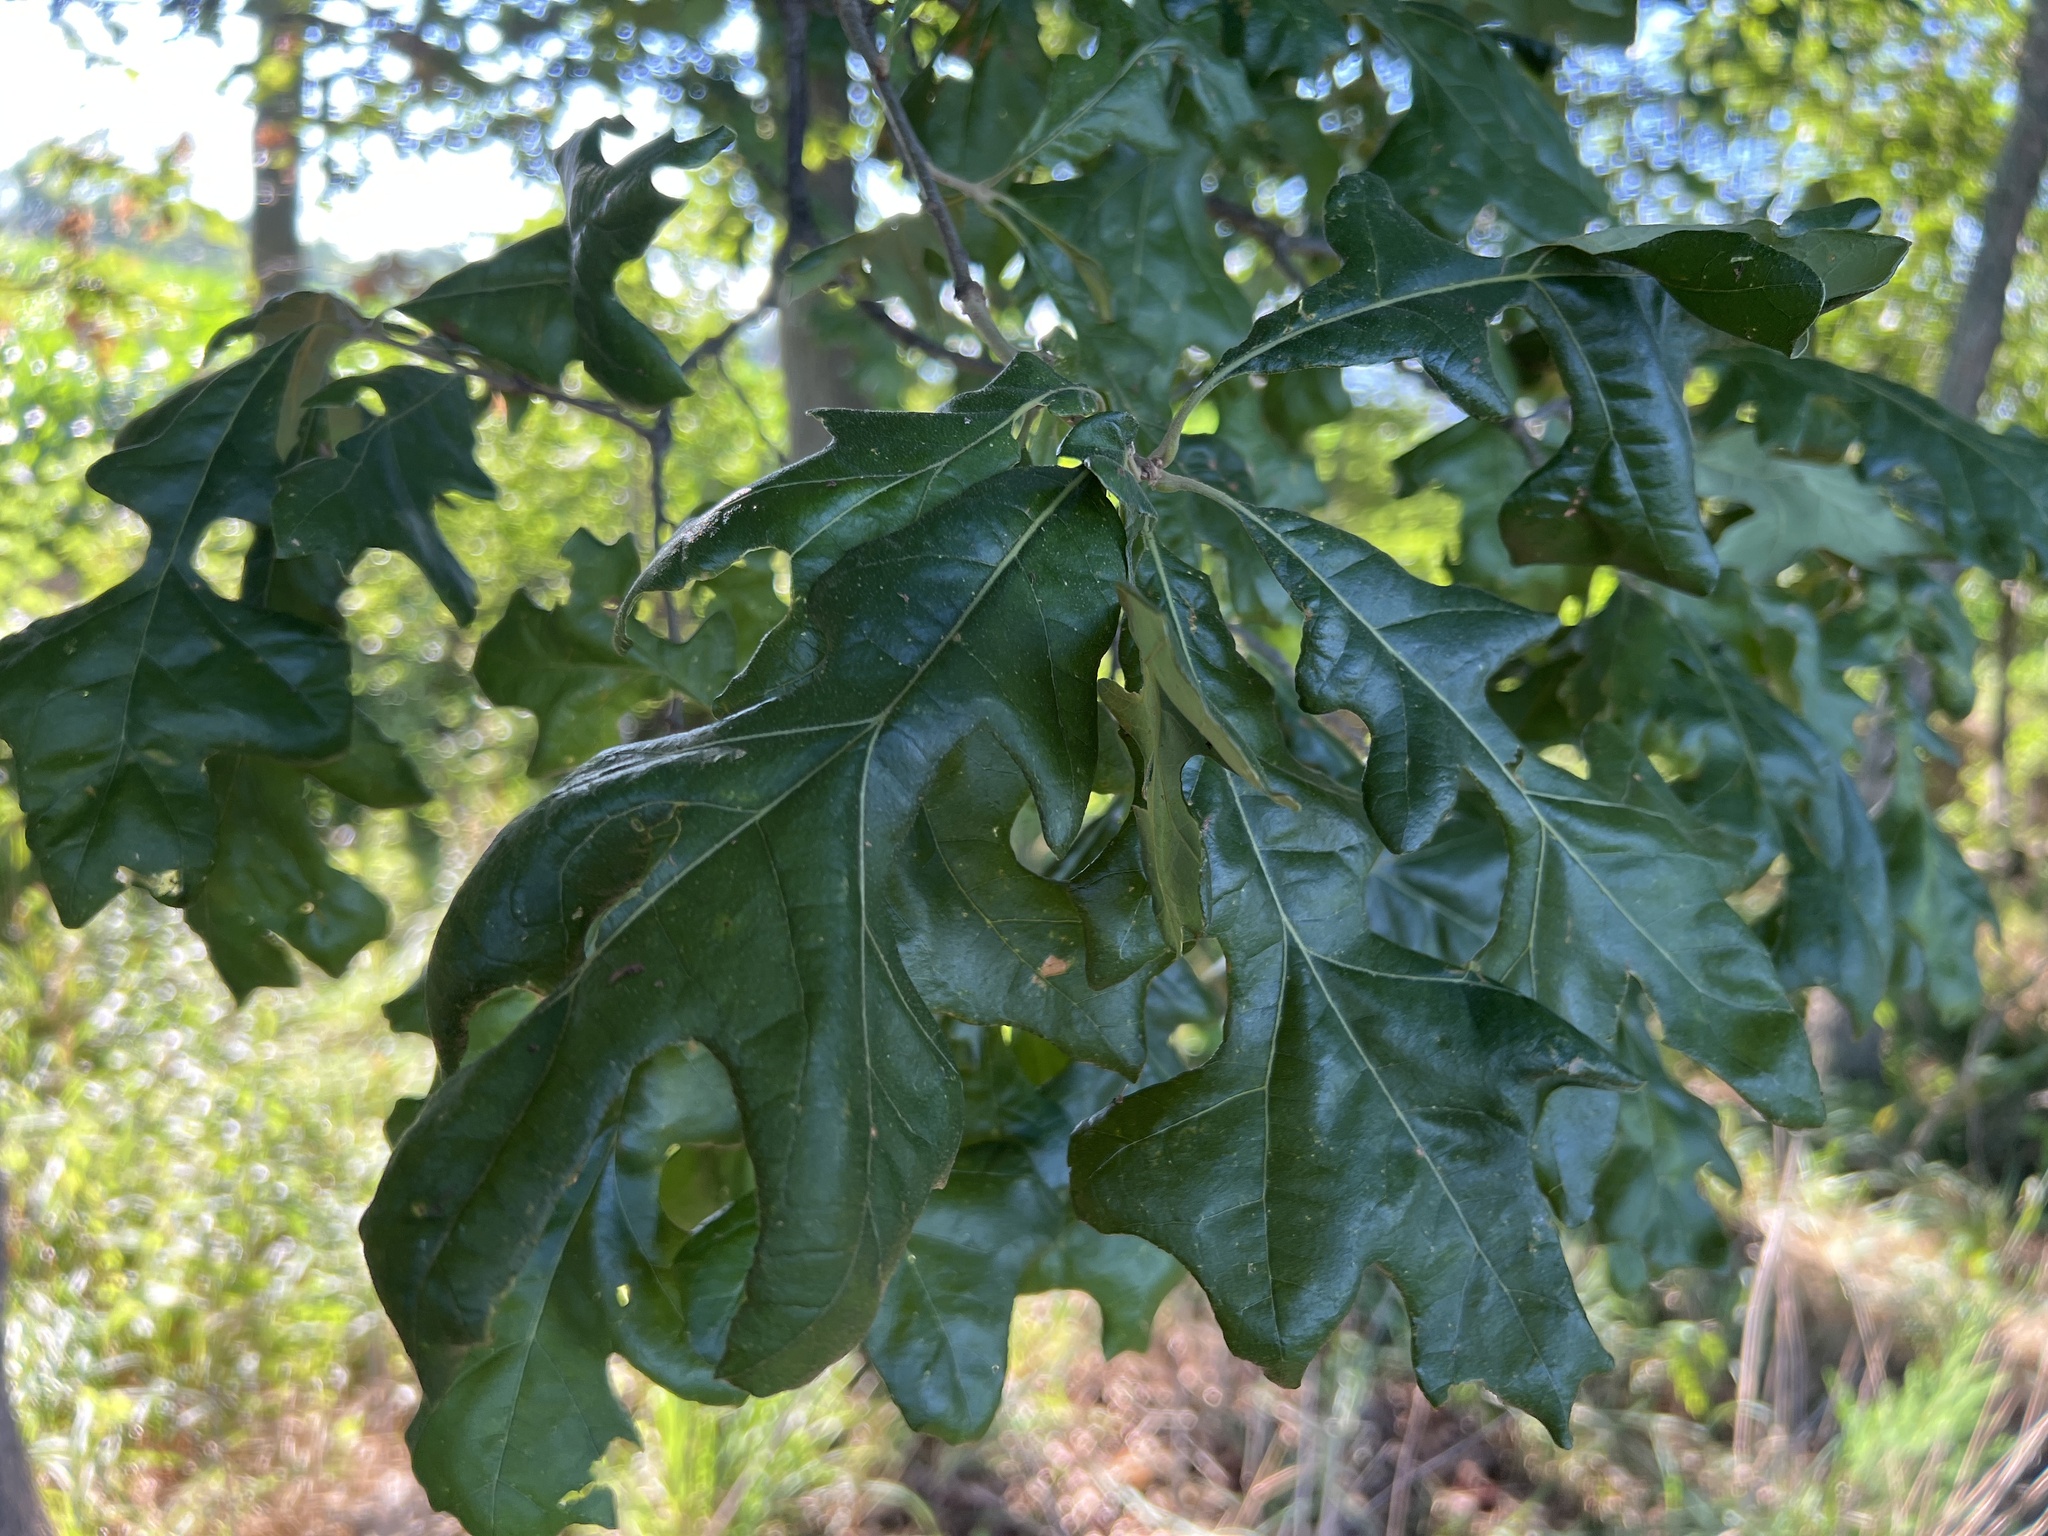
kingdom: Plantae
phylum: Tracheophyta
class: Magnoliopsida
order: Fagales
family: Fagaceae
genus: Quercus
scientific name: Quercus stellata
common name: Post oak
